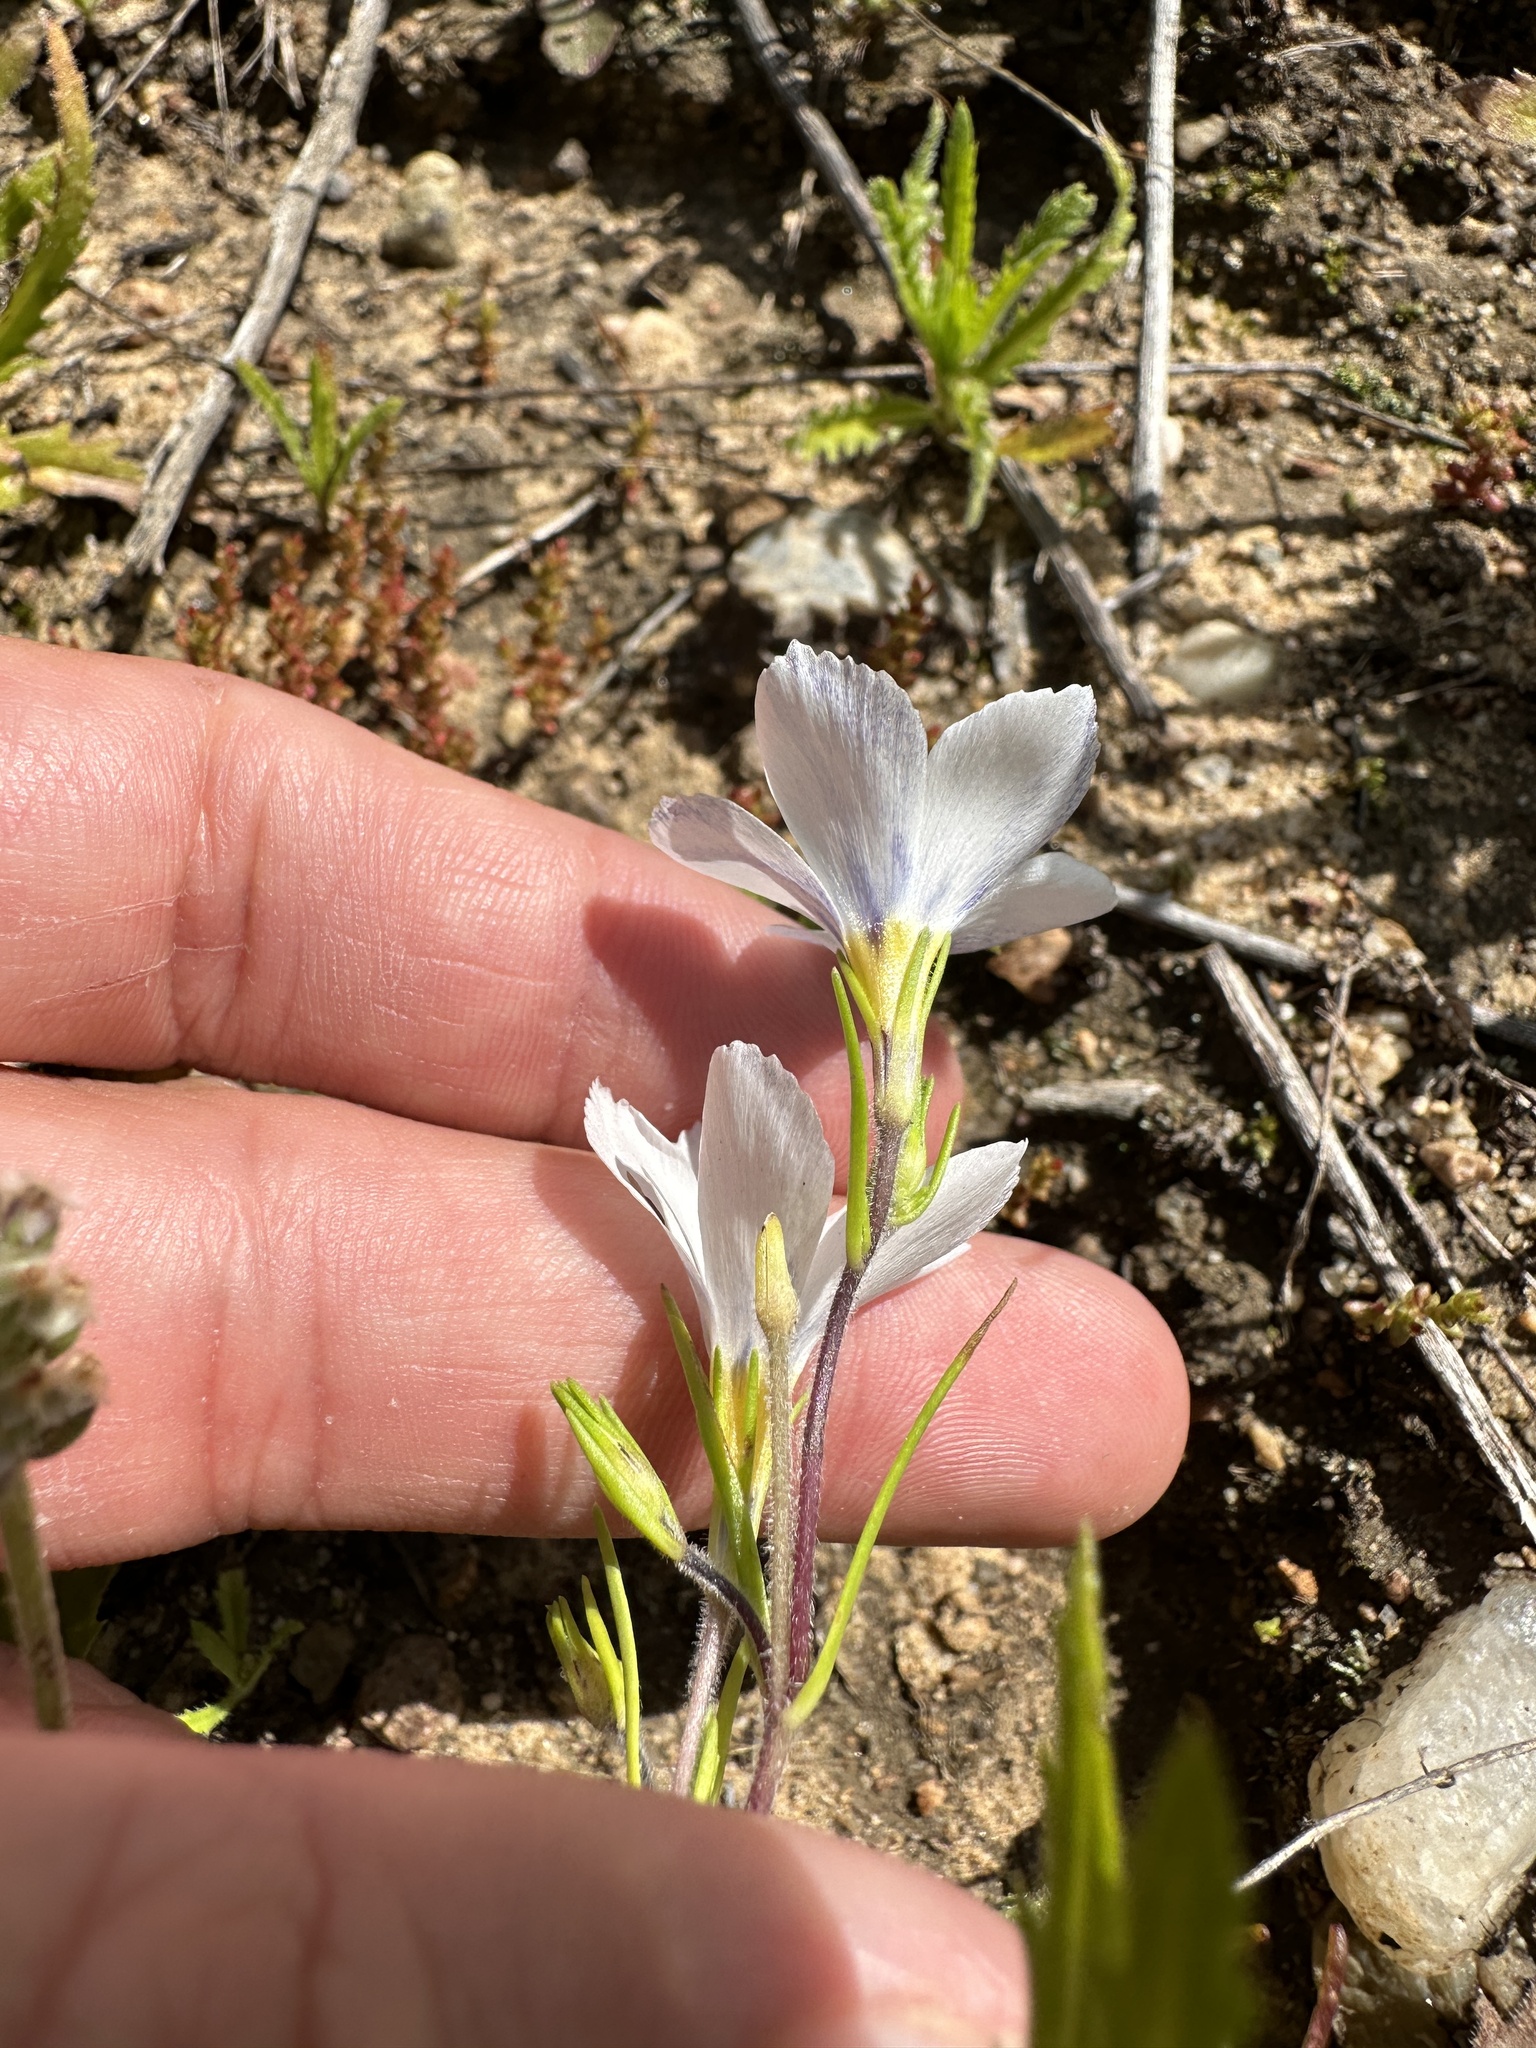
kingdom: Plantae
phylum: Tracheophyta
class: Magnoliopsida
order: Ericales
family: Polemoniaceae
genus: Linanthus
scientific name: Linanthus dianthiflorus
